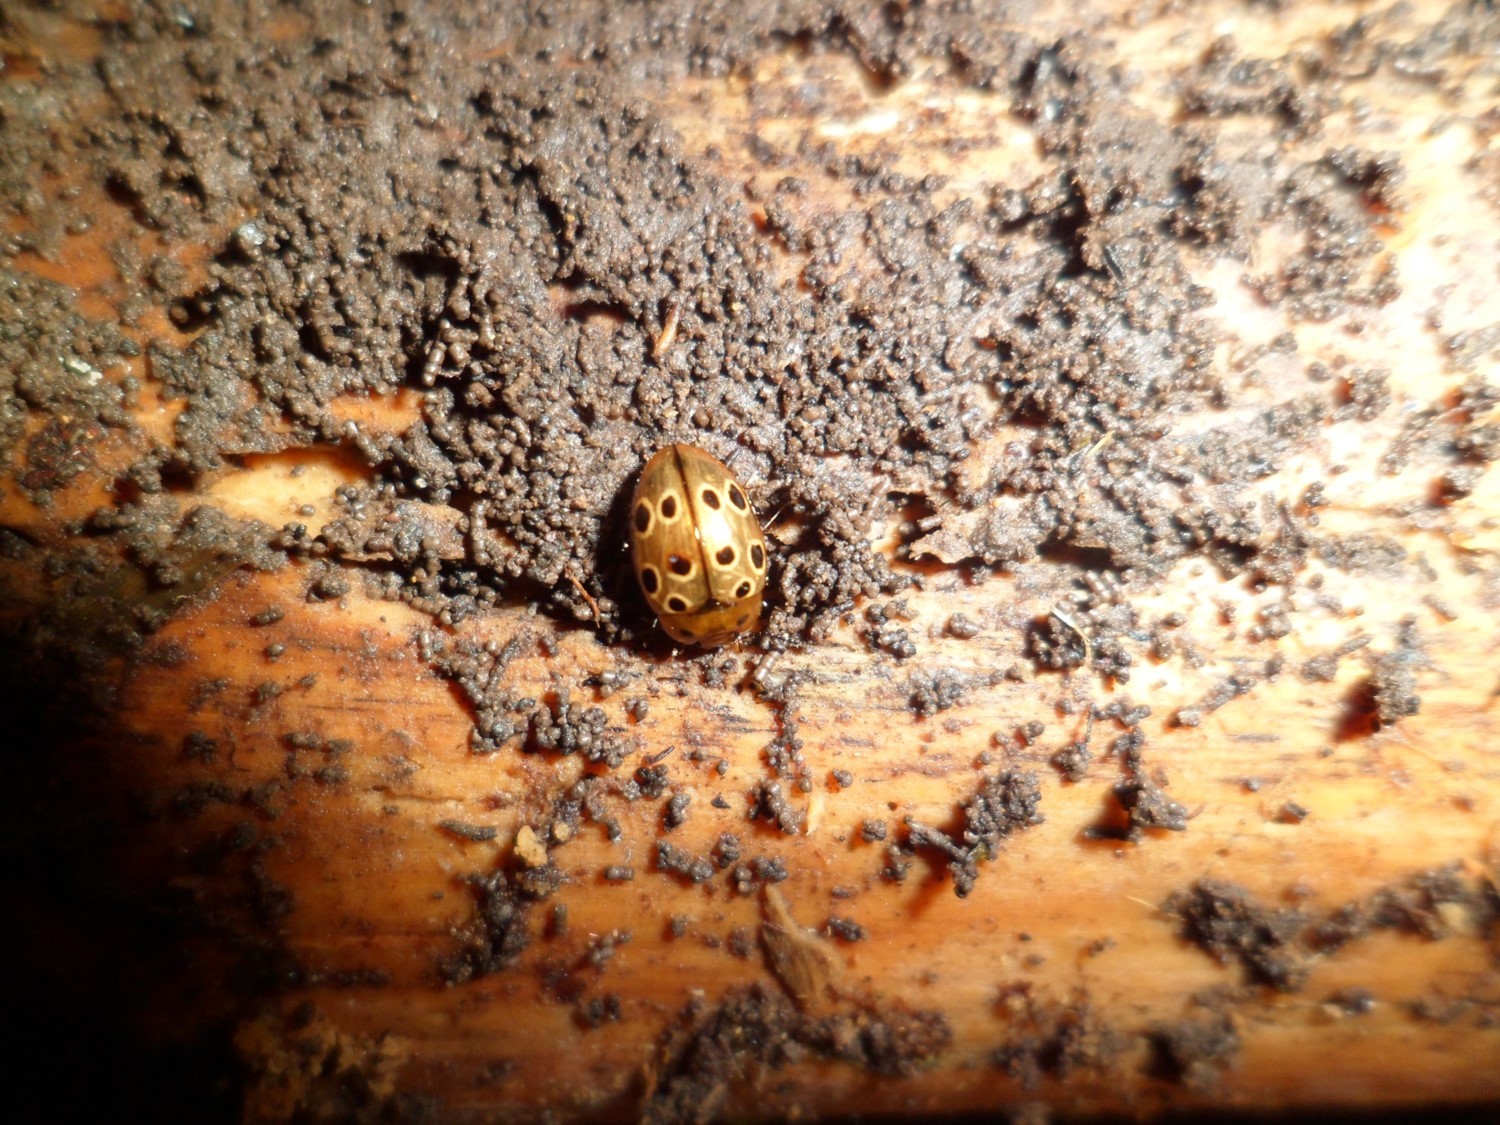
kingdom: Animalia
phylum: Arthropoda
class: Insecta
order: Coleoptera
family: Erotylidae
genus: Iphiclus
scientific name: Iphiclus
